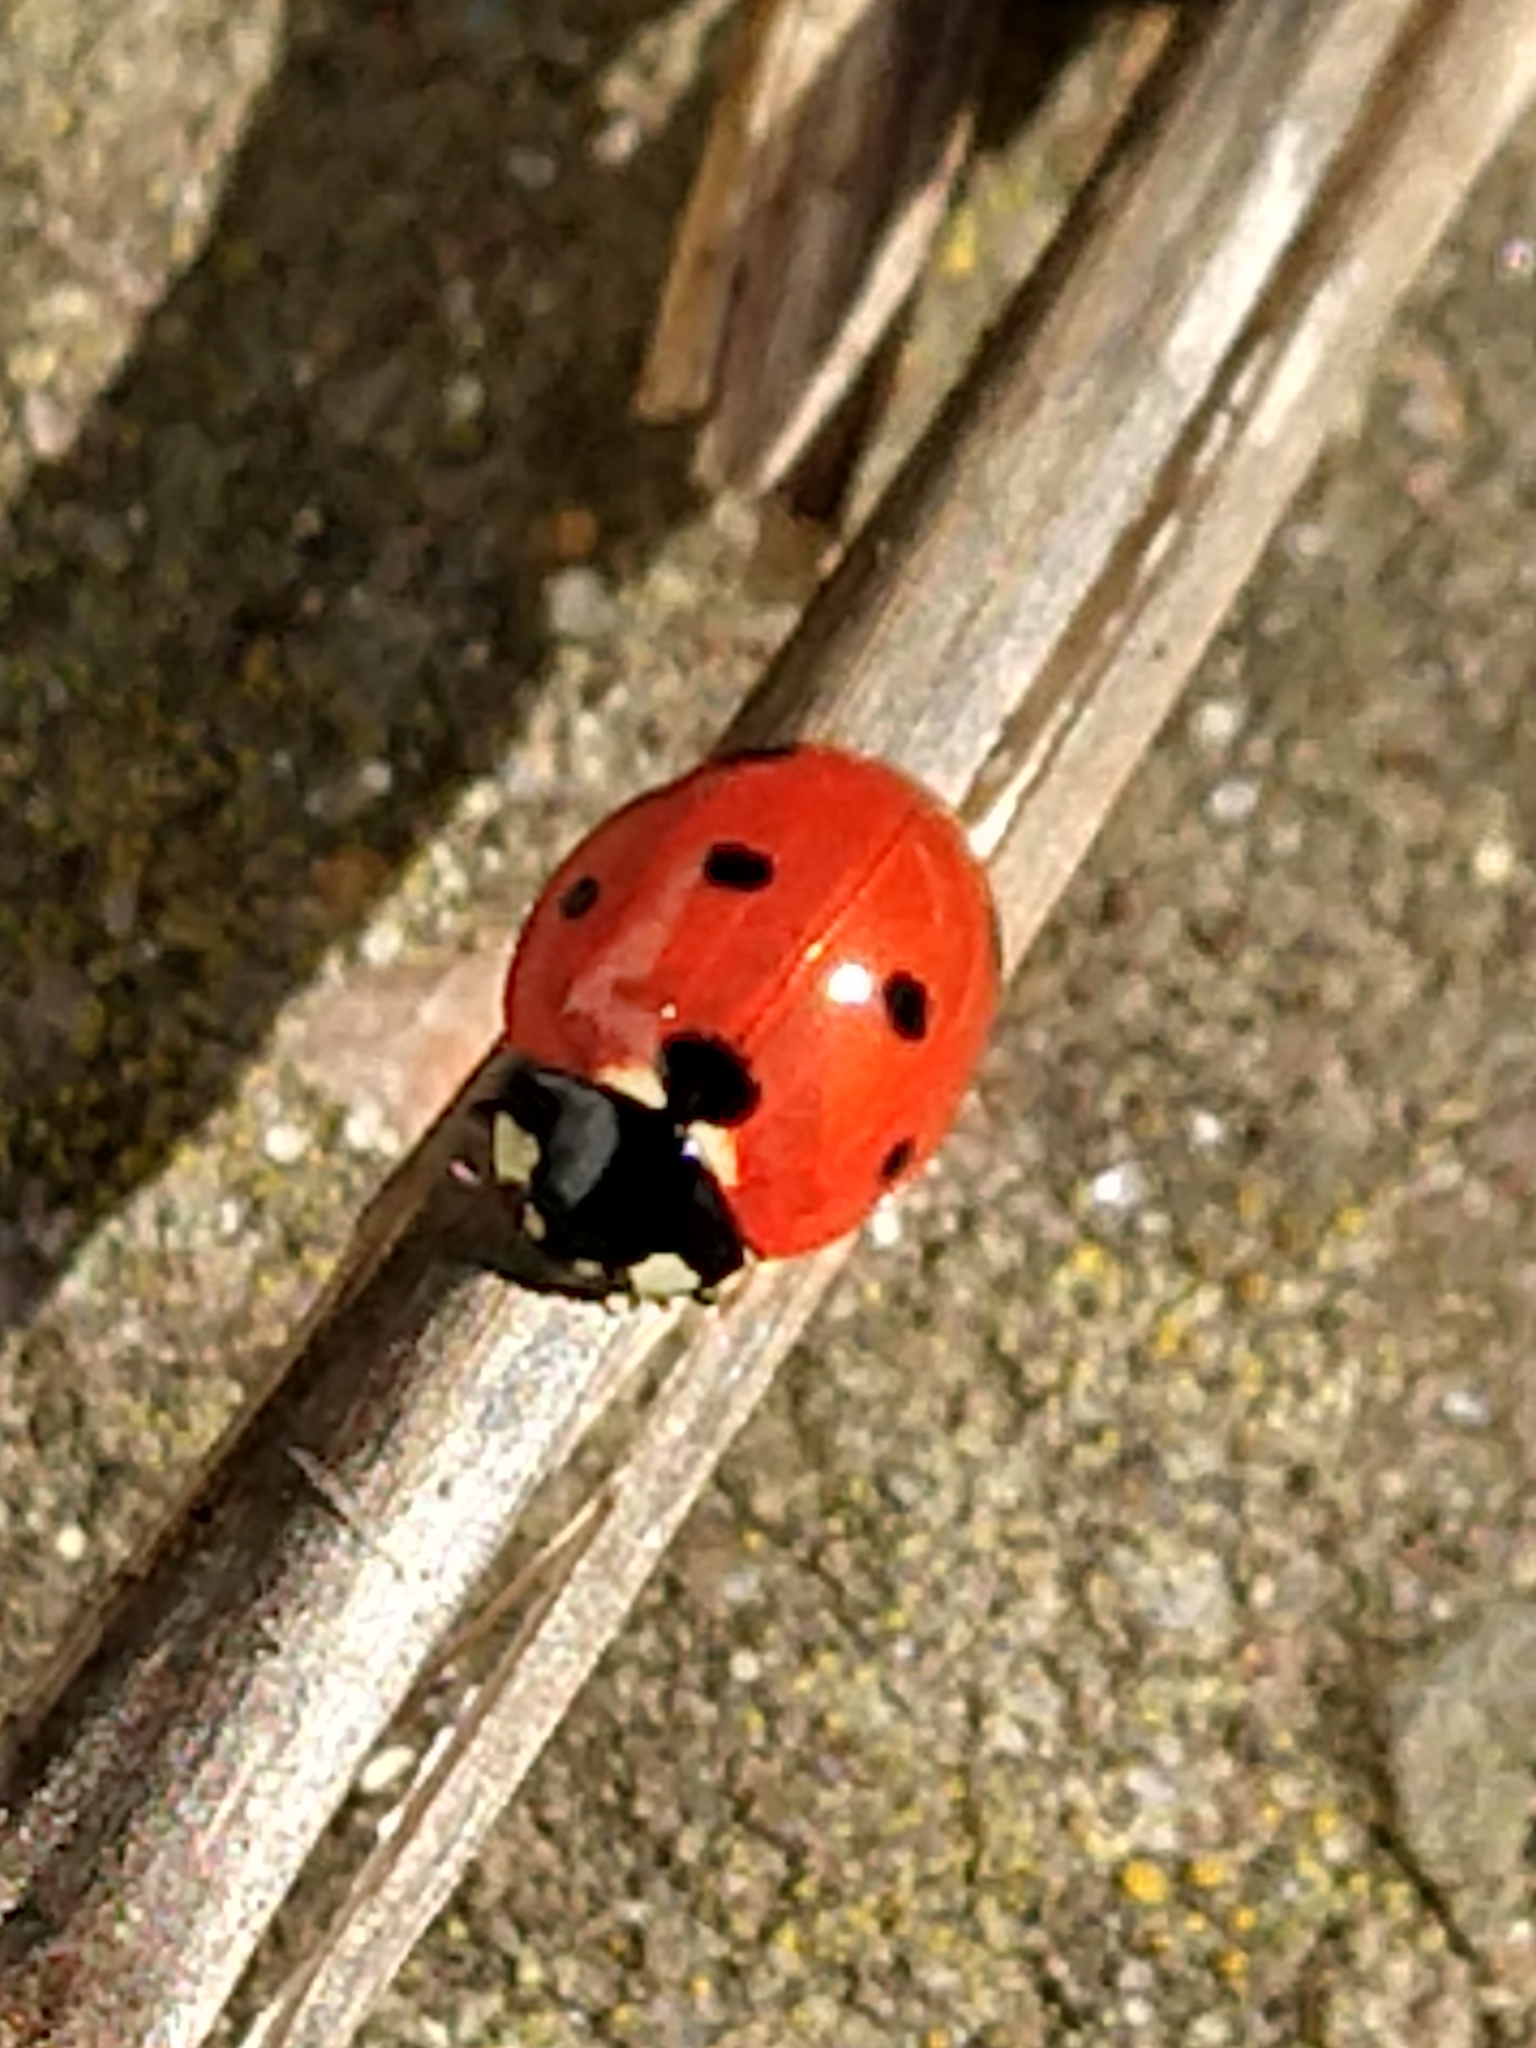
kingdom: Animalia
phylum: Arthropoda
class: Insecta
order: Coleoptera
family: Coccinellidae
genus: Coccinella
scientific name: Coccinella septempunctata
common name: Sevenspotted lady beetle
